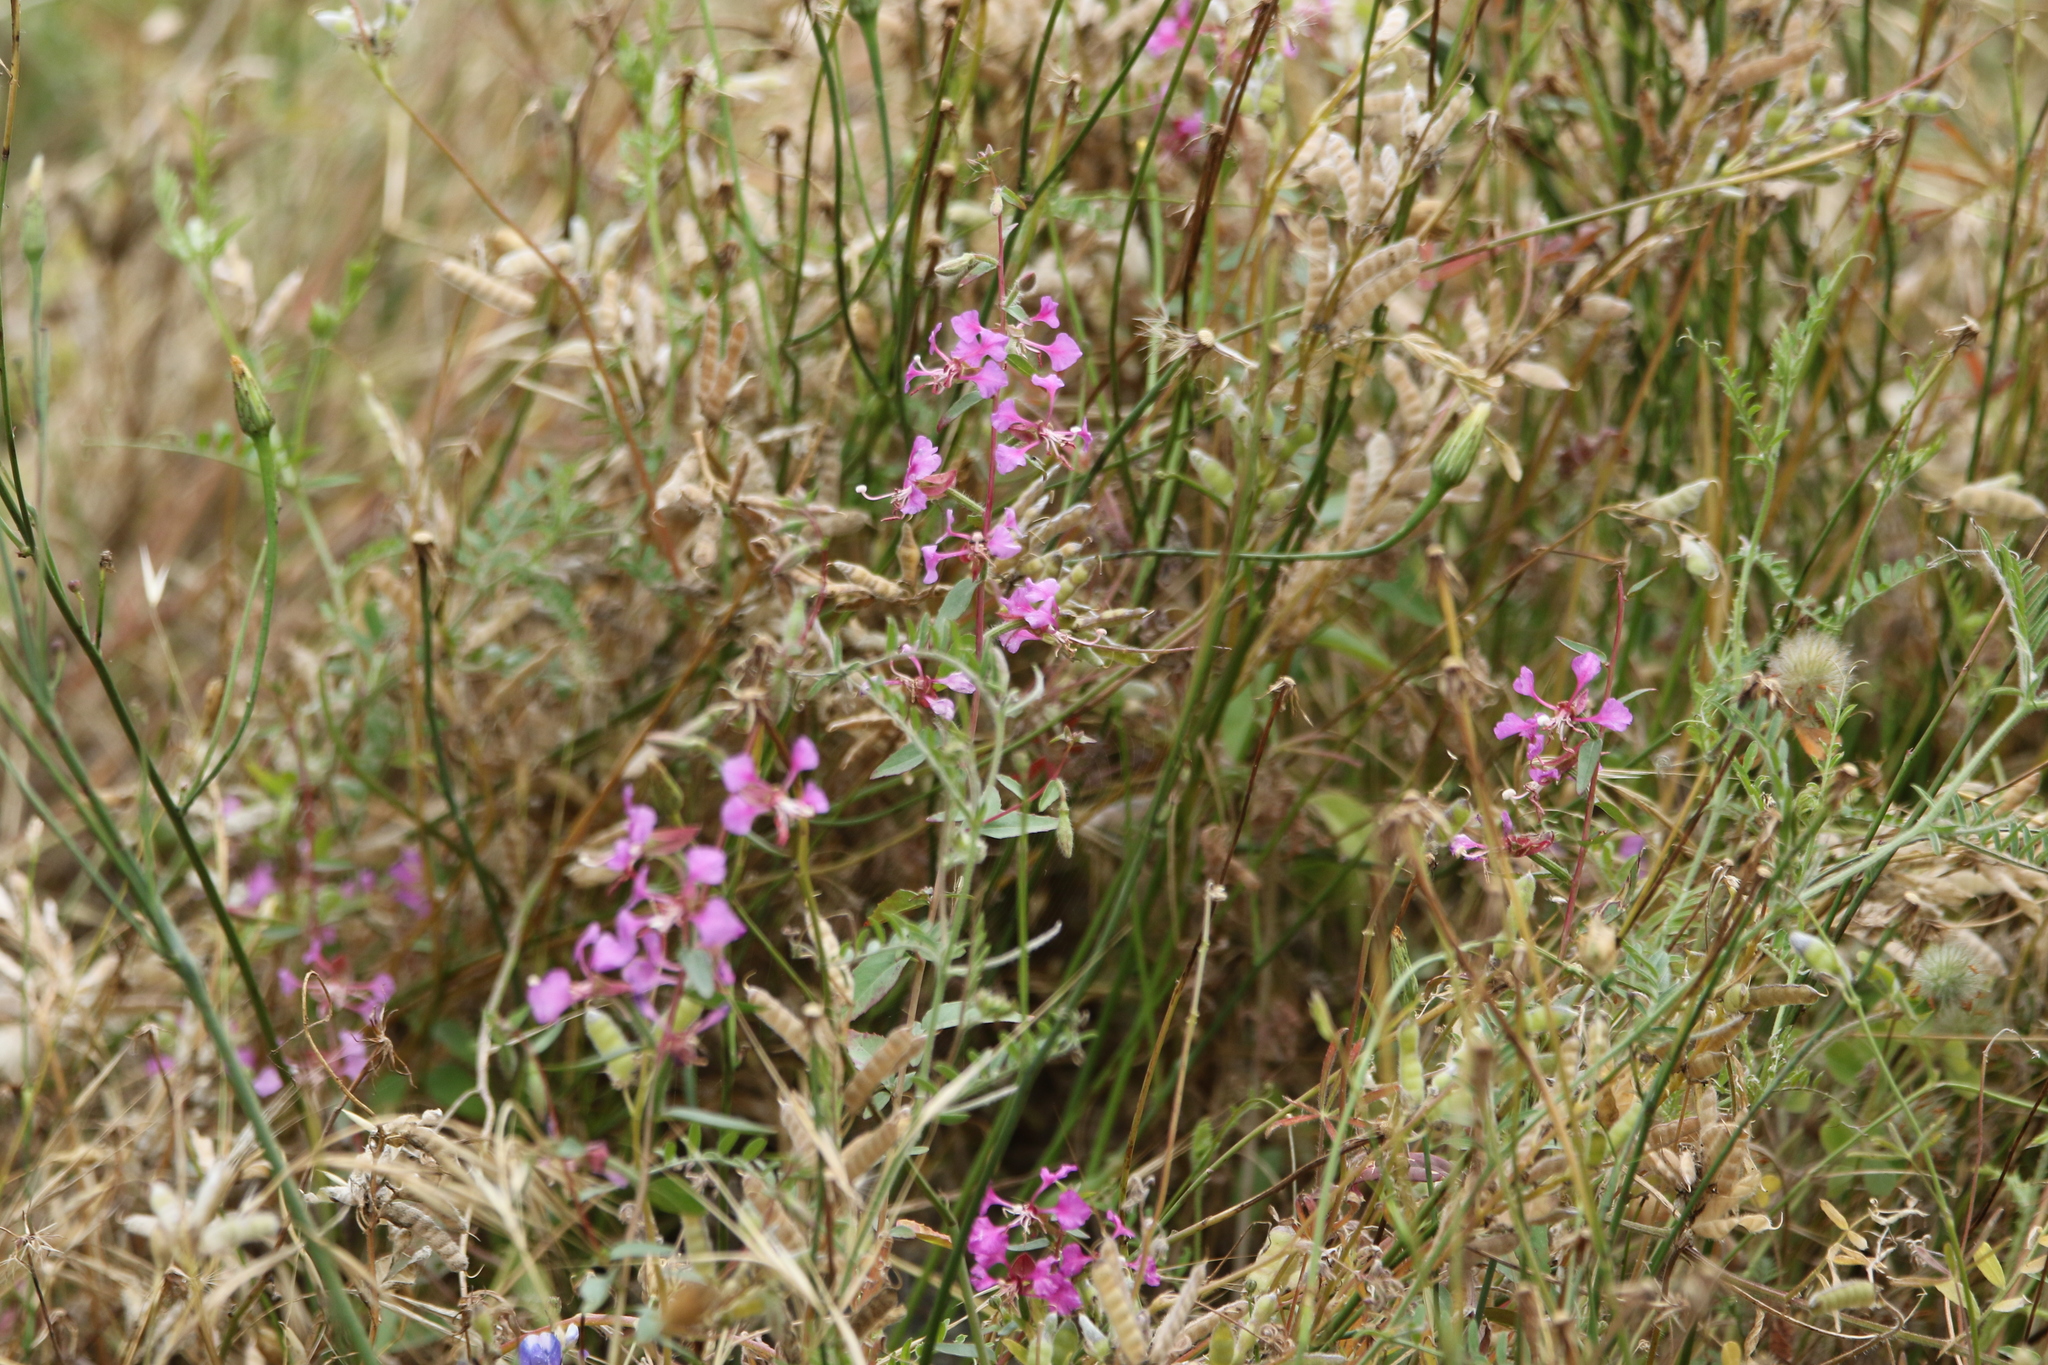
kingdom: Plantae
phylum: Tracheophyta
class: Magnoliopsida
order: Myrtales
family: Onagraceae
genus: Clarkia
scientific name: Clarkia unguiculata
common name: Clarkia
